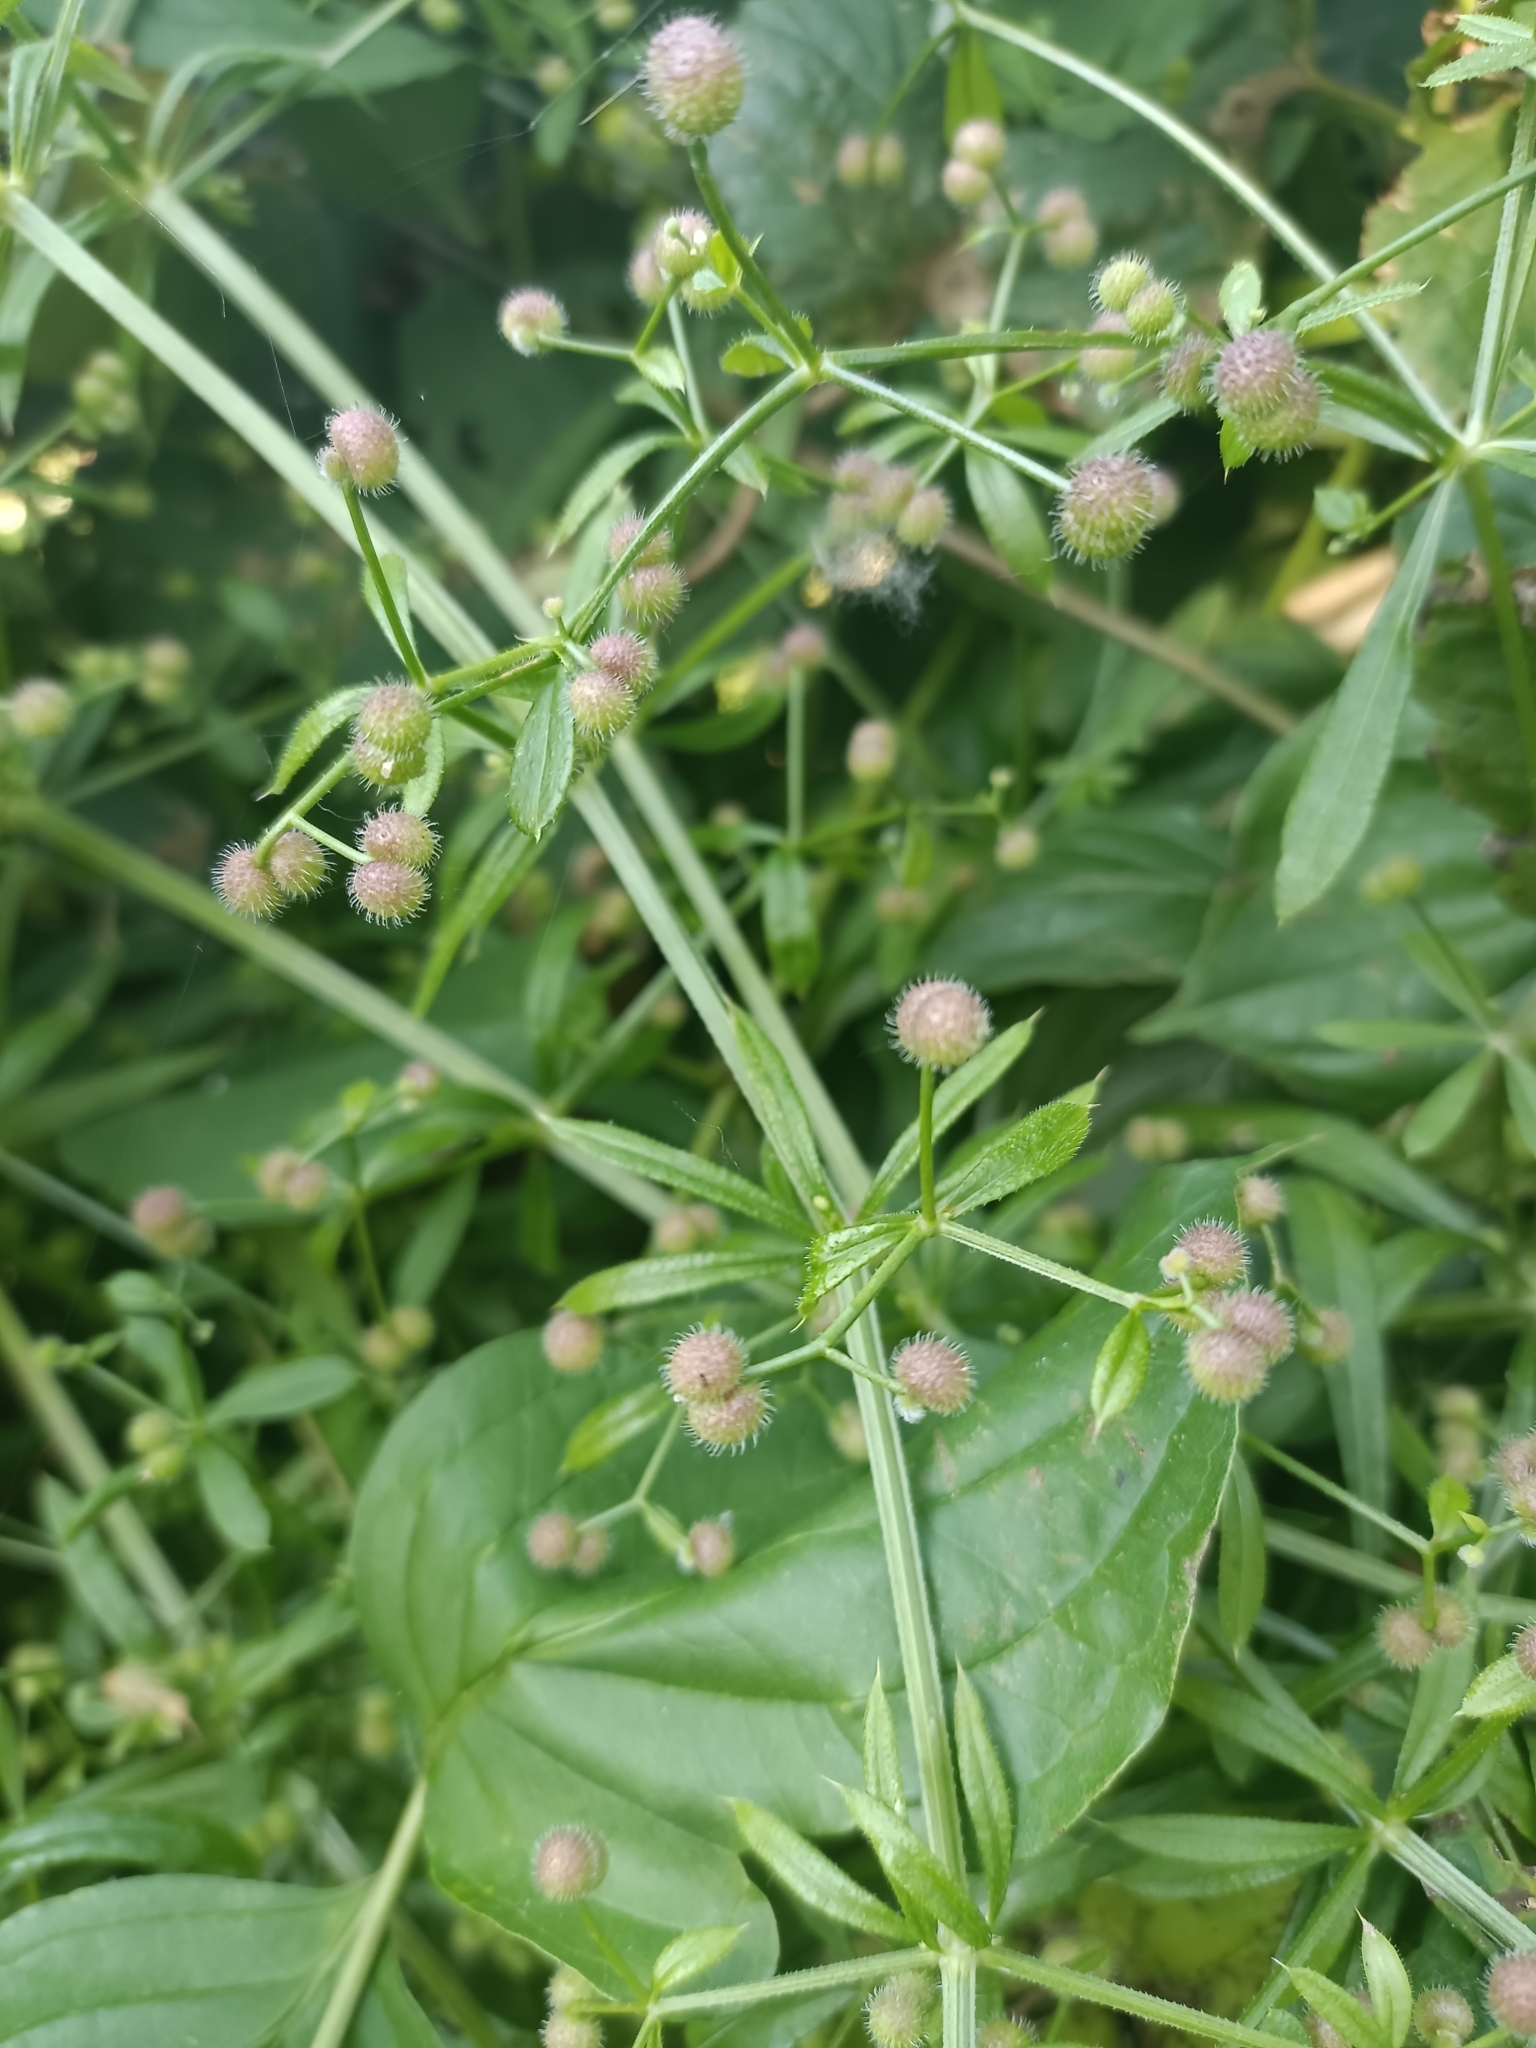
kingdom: Plantae
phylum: Tracheophyta
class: Magnoliopsida
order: Gentianales
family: Rubiaceae
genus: Galium
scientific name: Galium aparine
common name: Cleavers
